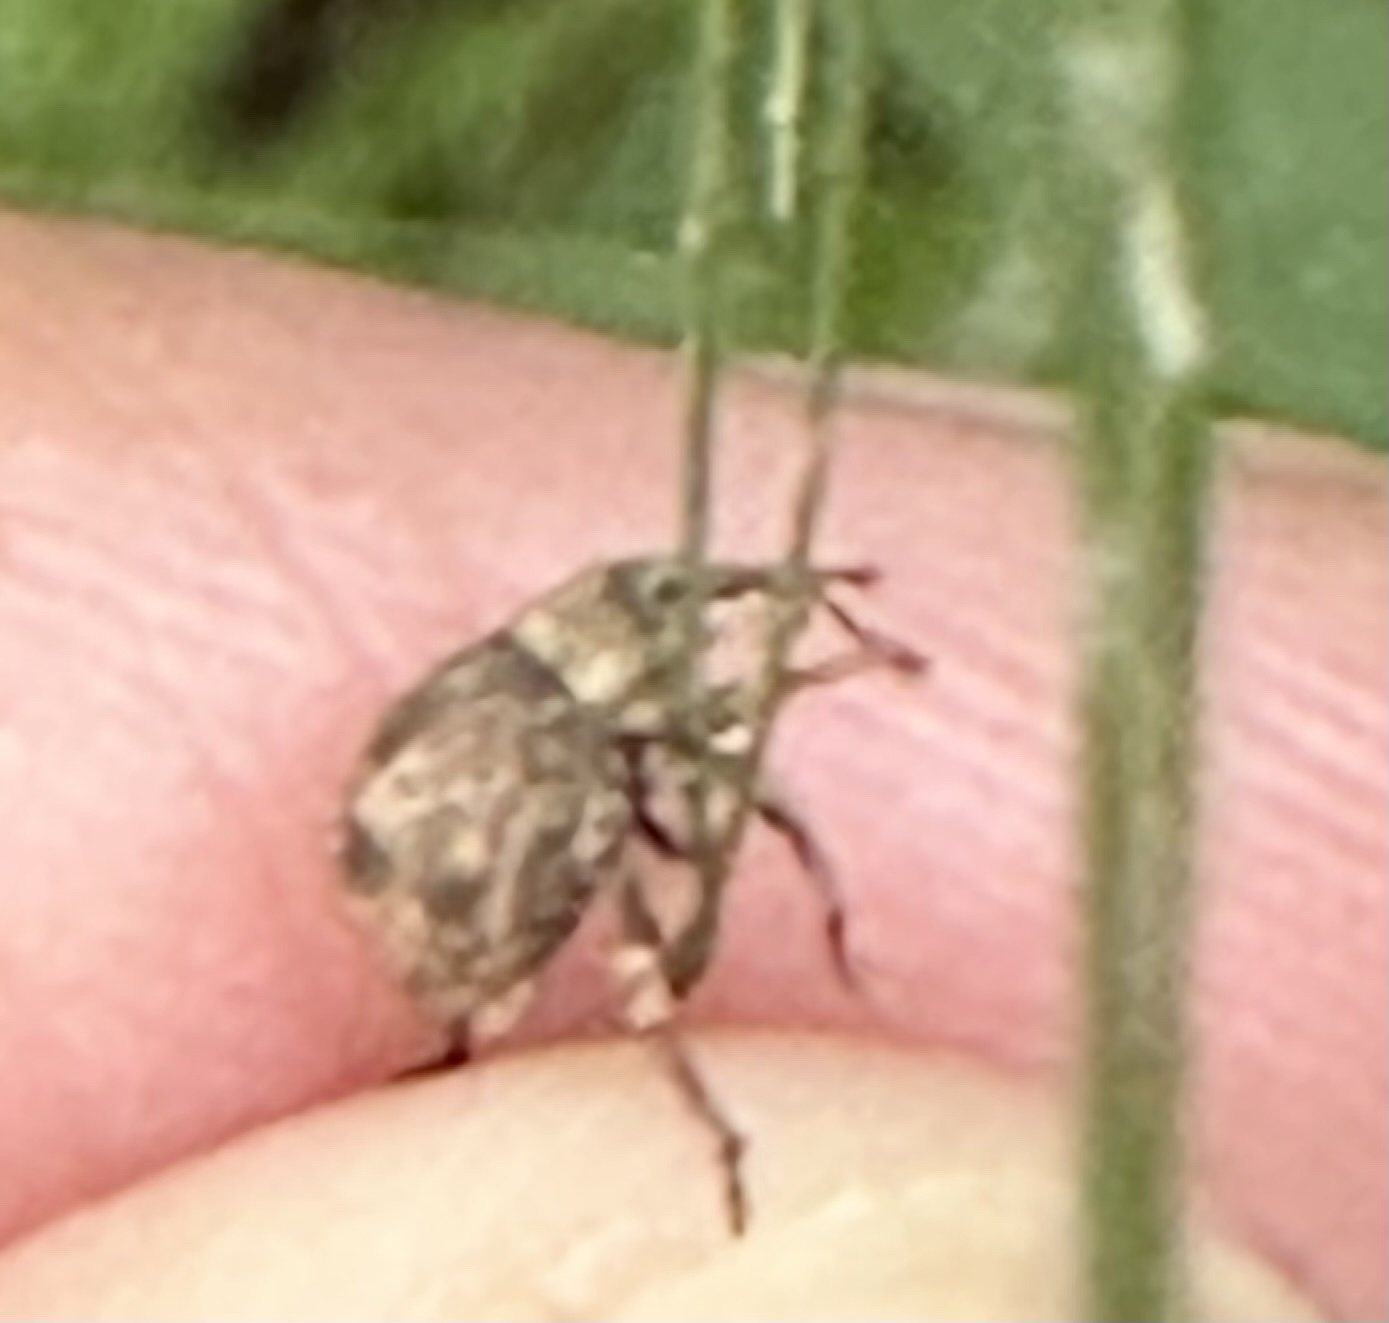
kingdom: Animalia
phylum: Arthropoda
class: Insecta
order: Coleoptera
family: Curculionidae
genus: Pseudocneorhinus
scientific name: Pseudocneorhinus bifasciatus
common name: Two-banded japanese weevil
